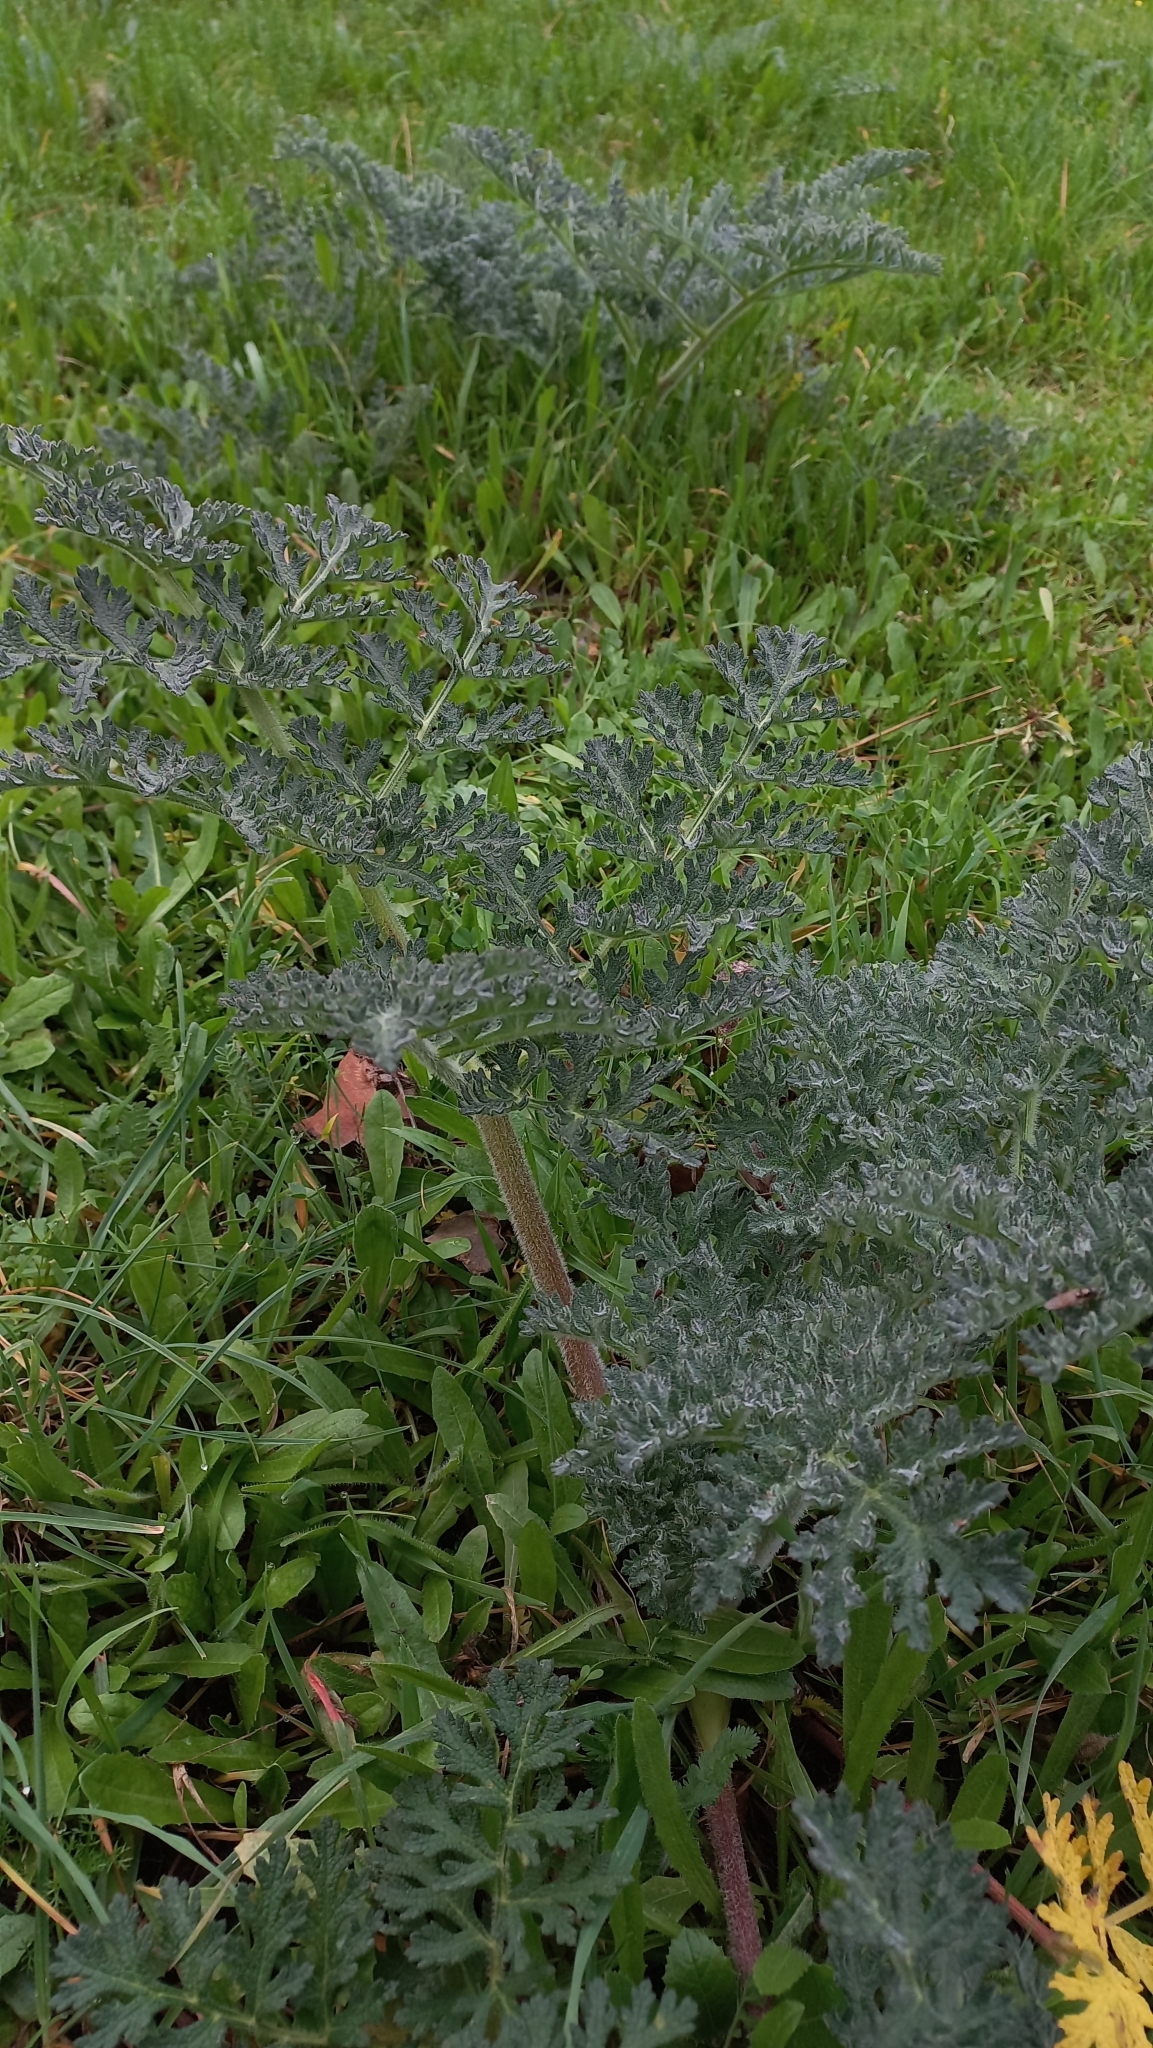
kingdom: Plantae
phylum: Tracheophyta
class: Magnoliopsida
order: Apiales
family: Apiaceae
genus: Thapsia
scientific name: Thapsia villosa
